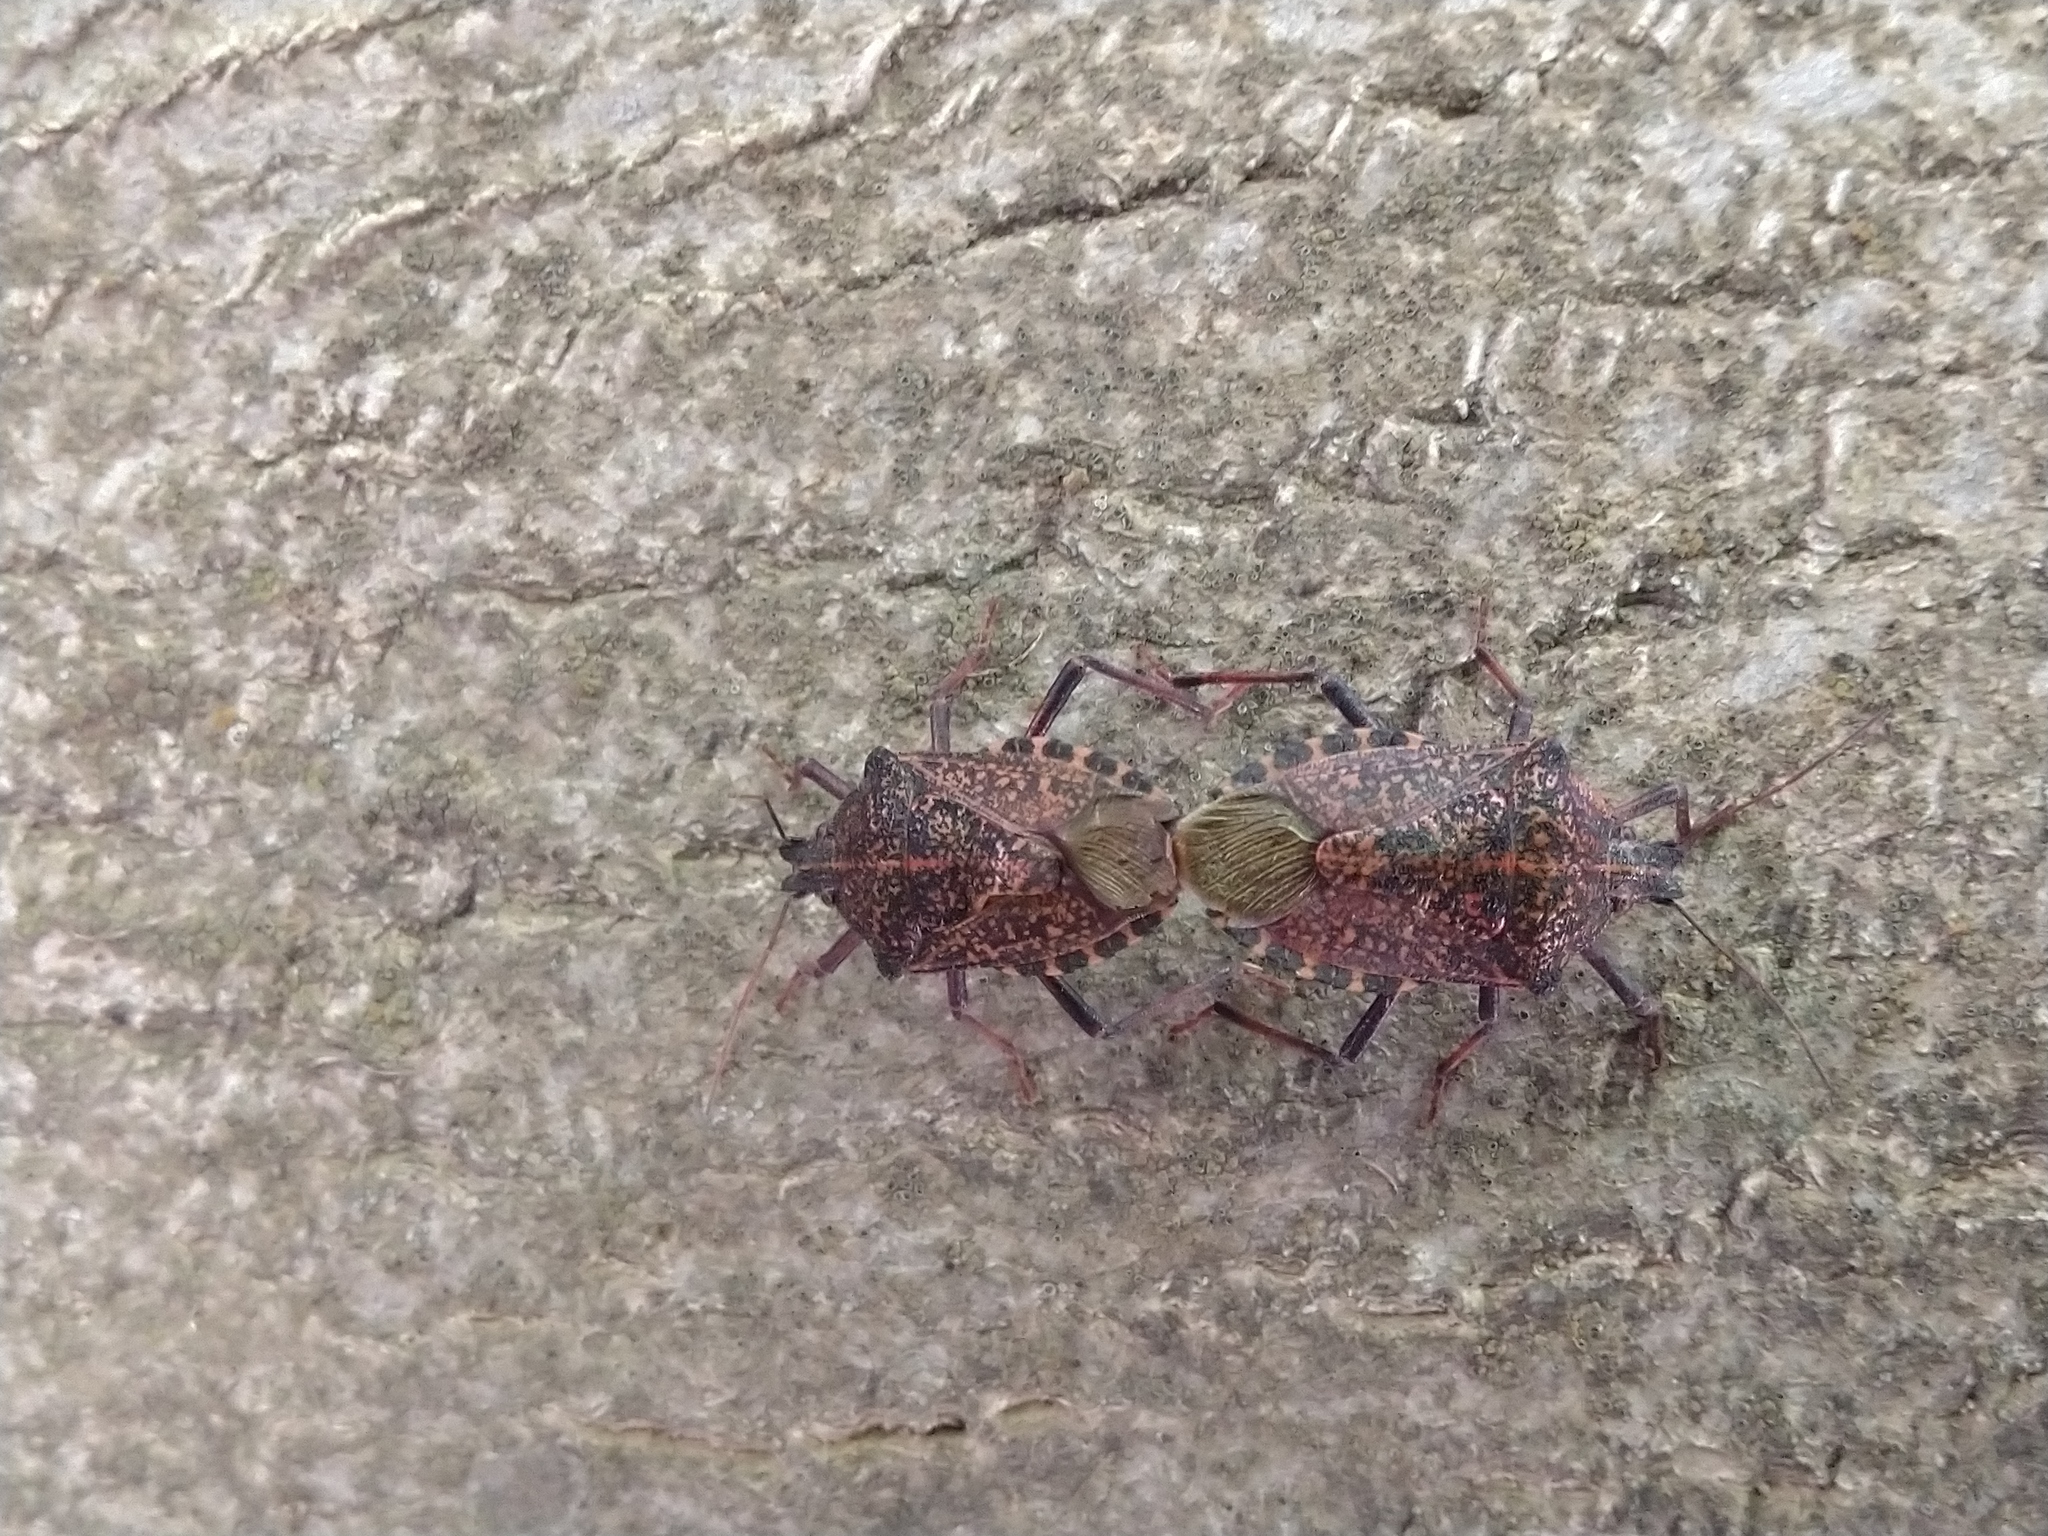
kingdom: Animalia
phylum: Arthropoda
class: Insecta
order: Hemiptera
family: Pentatomidae
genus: Apodiphus
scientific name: Apodiphus amygdali
